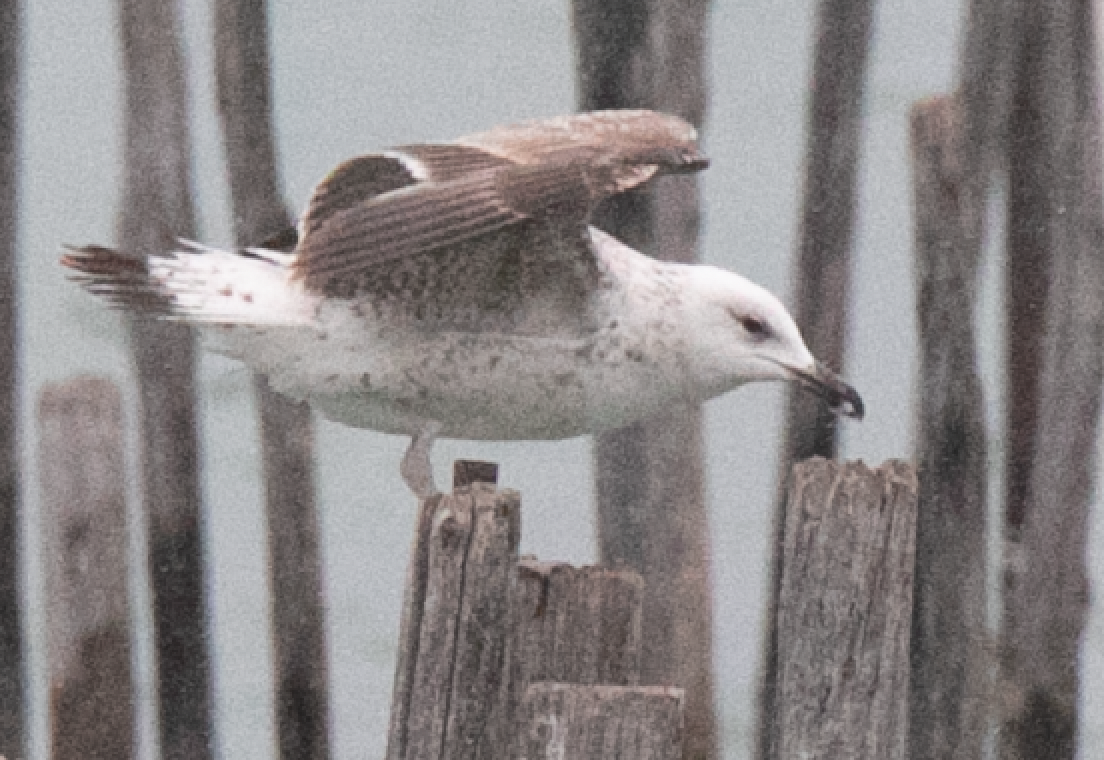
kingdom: Animalia
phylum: Chordata
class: Aves
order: Charadriiformes
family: Laridae
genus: Larus
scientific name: Larus michahellis
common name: Yellow-legged gull
